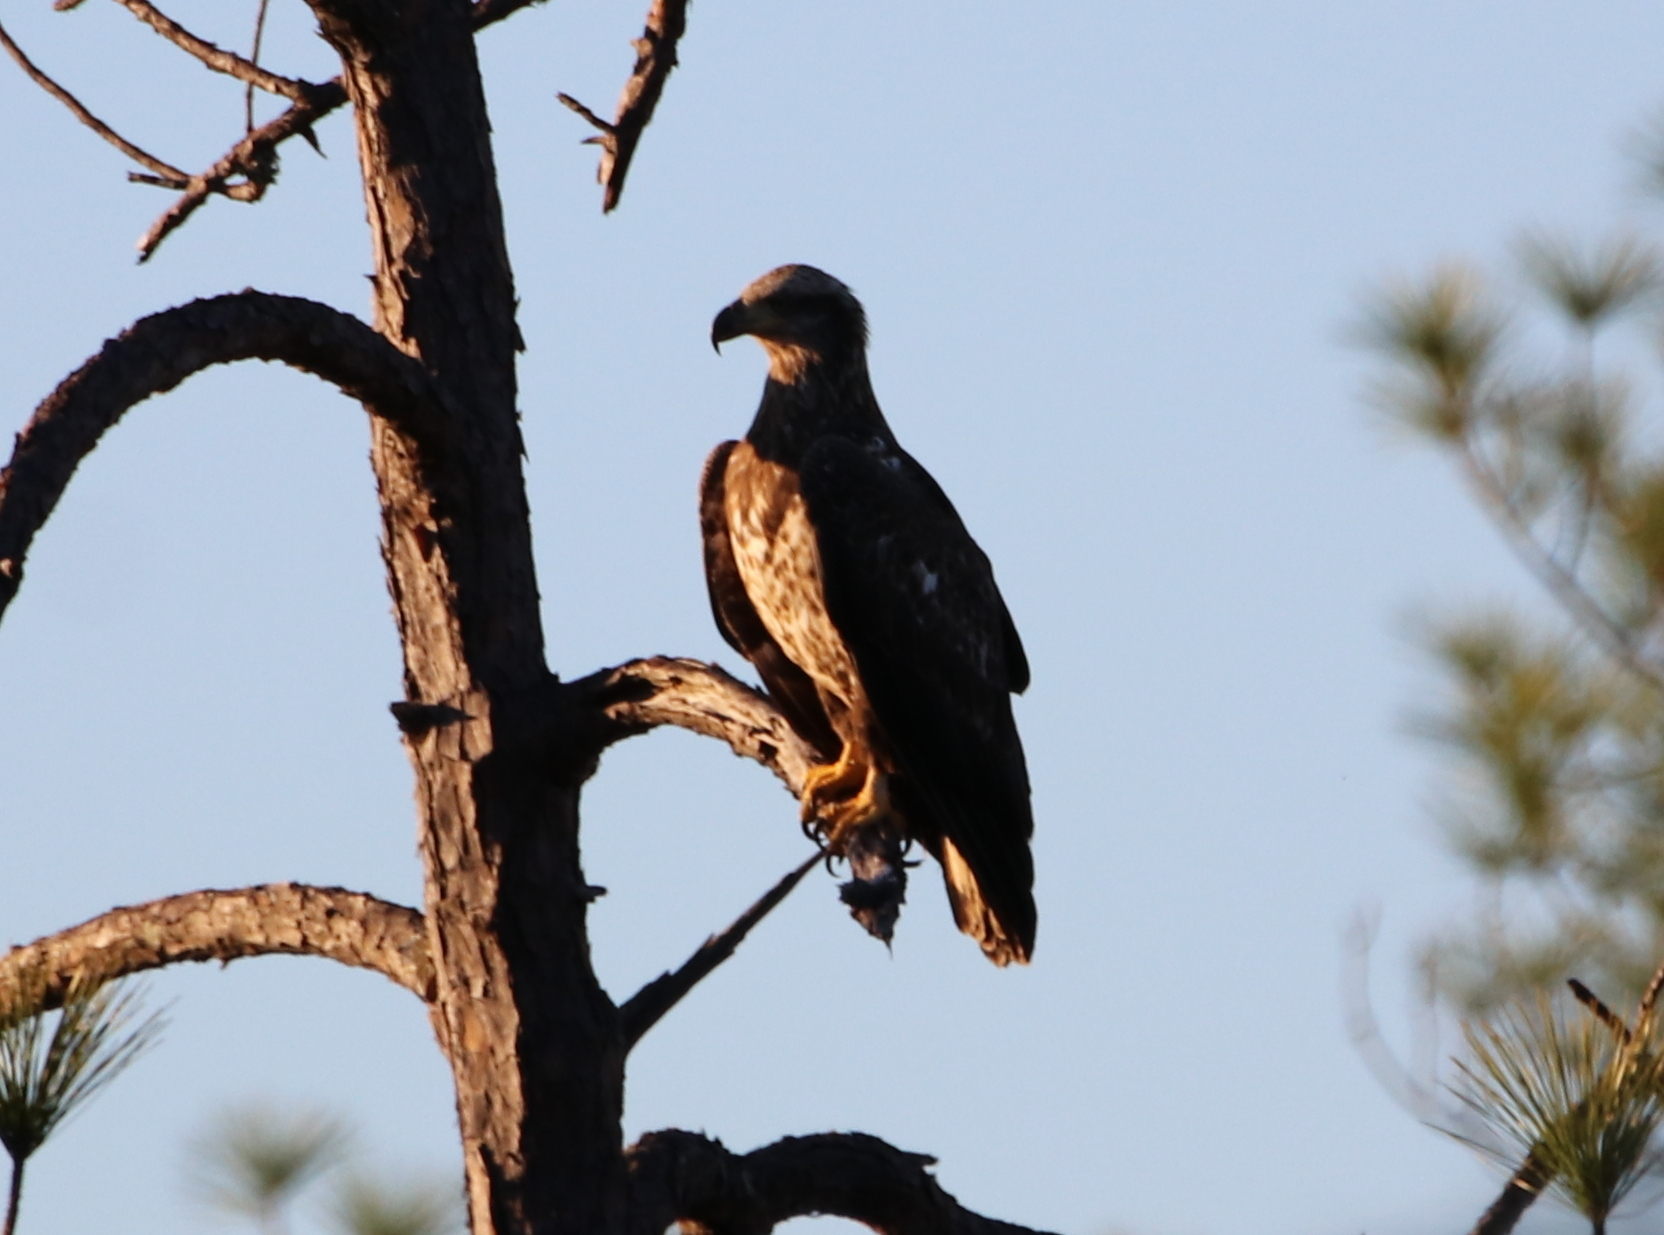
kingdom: Animalia
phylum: Chordata
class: Aves
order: Accipitriformes
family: Accipitridae
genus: Haliaeetus
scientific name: Haliaeetus leucocephalus
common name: Bald eagle
